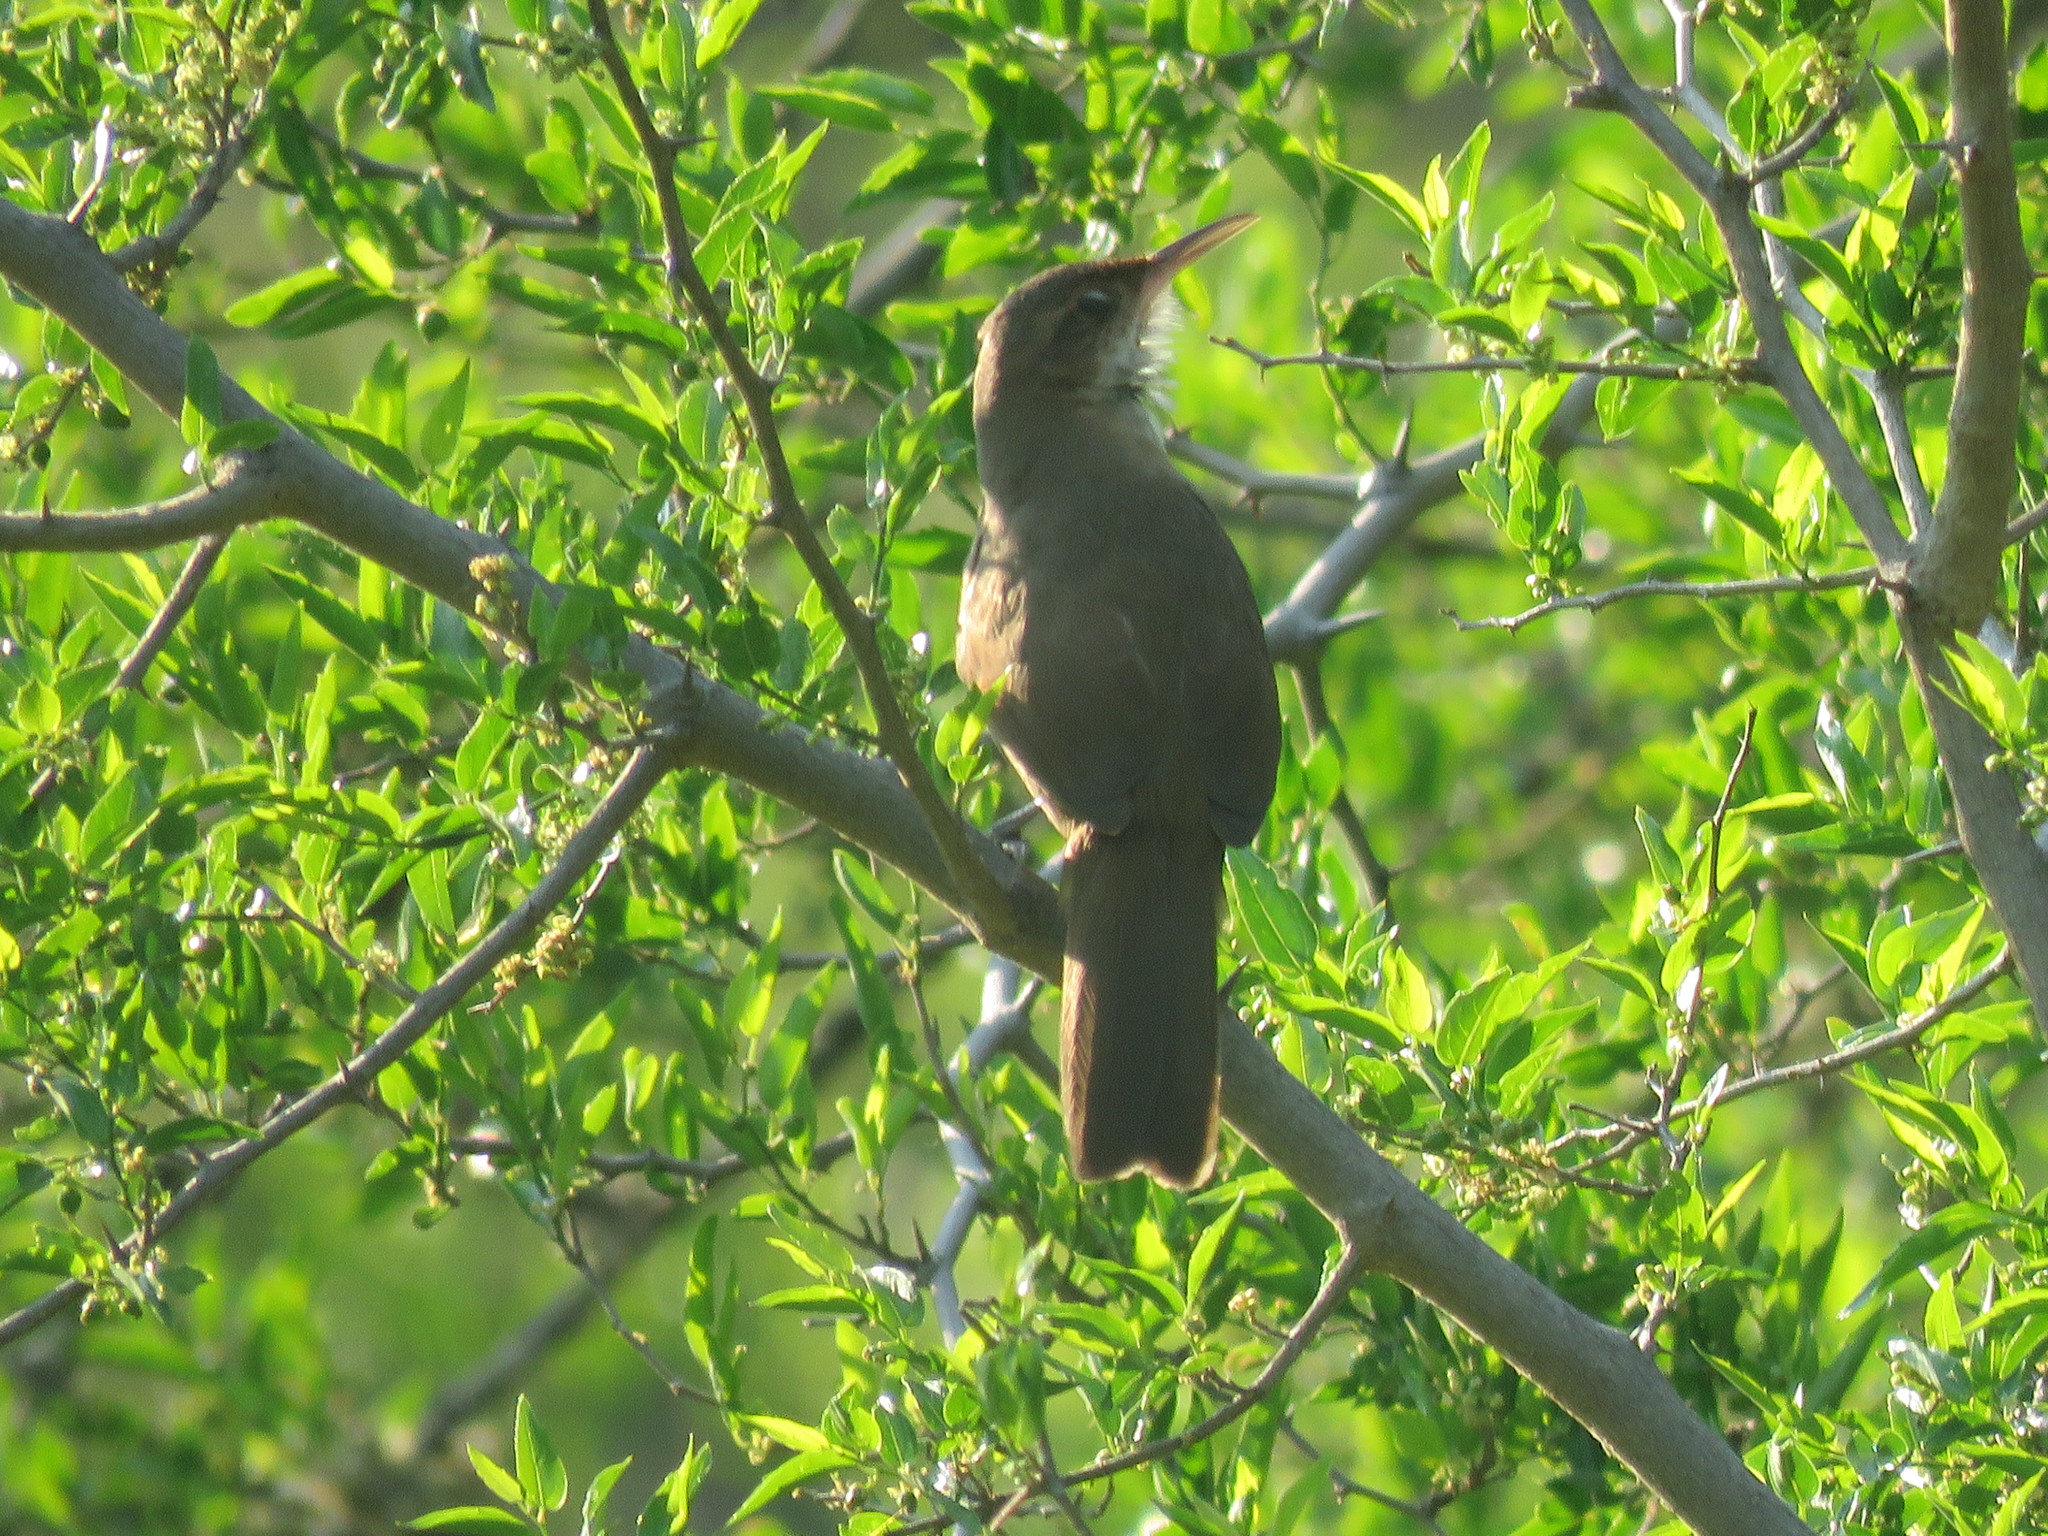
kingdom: Animalia
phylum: Chordata
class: Aves
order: Passeriformes
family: Furnariidae
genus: Upucerthia
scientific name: Upucerthia certhioides
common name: Chaco earthcreeper
